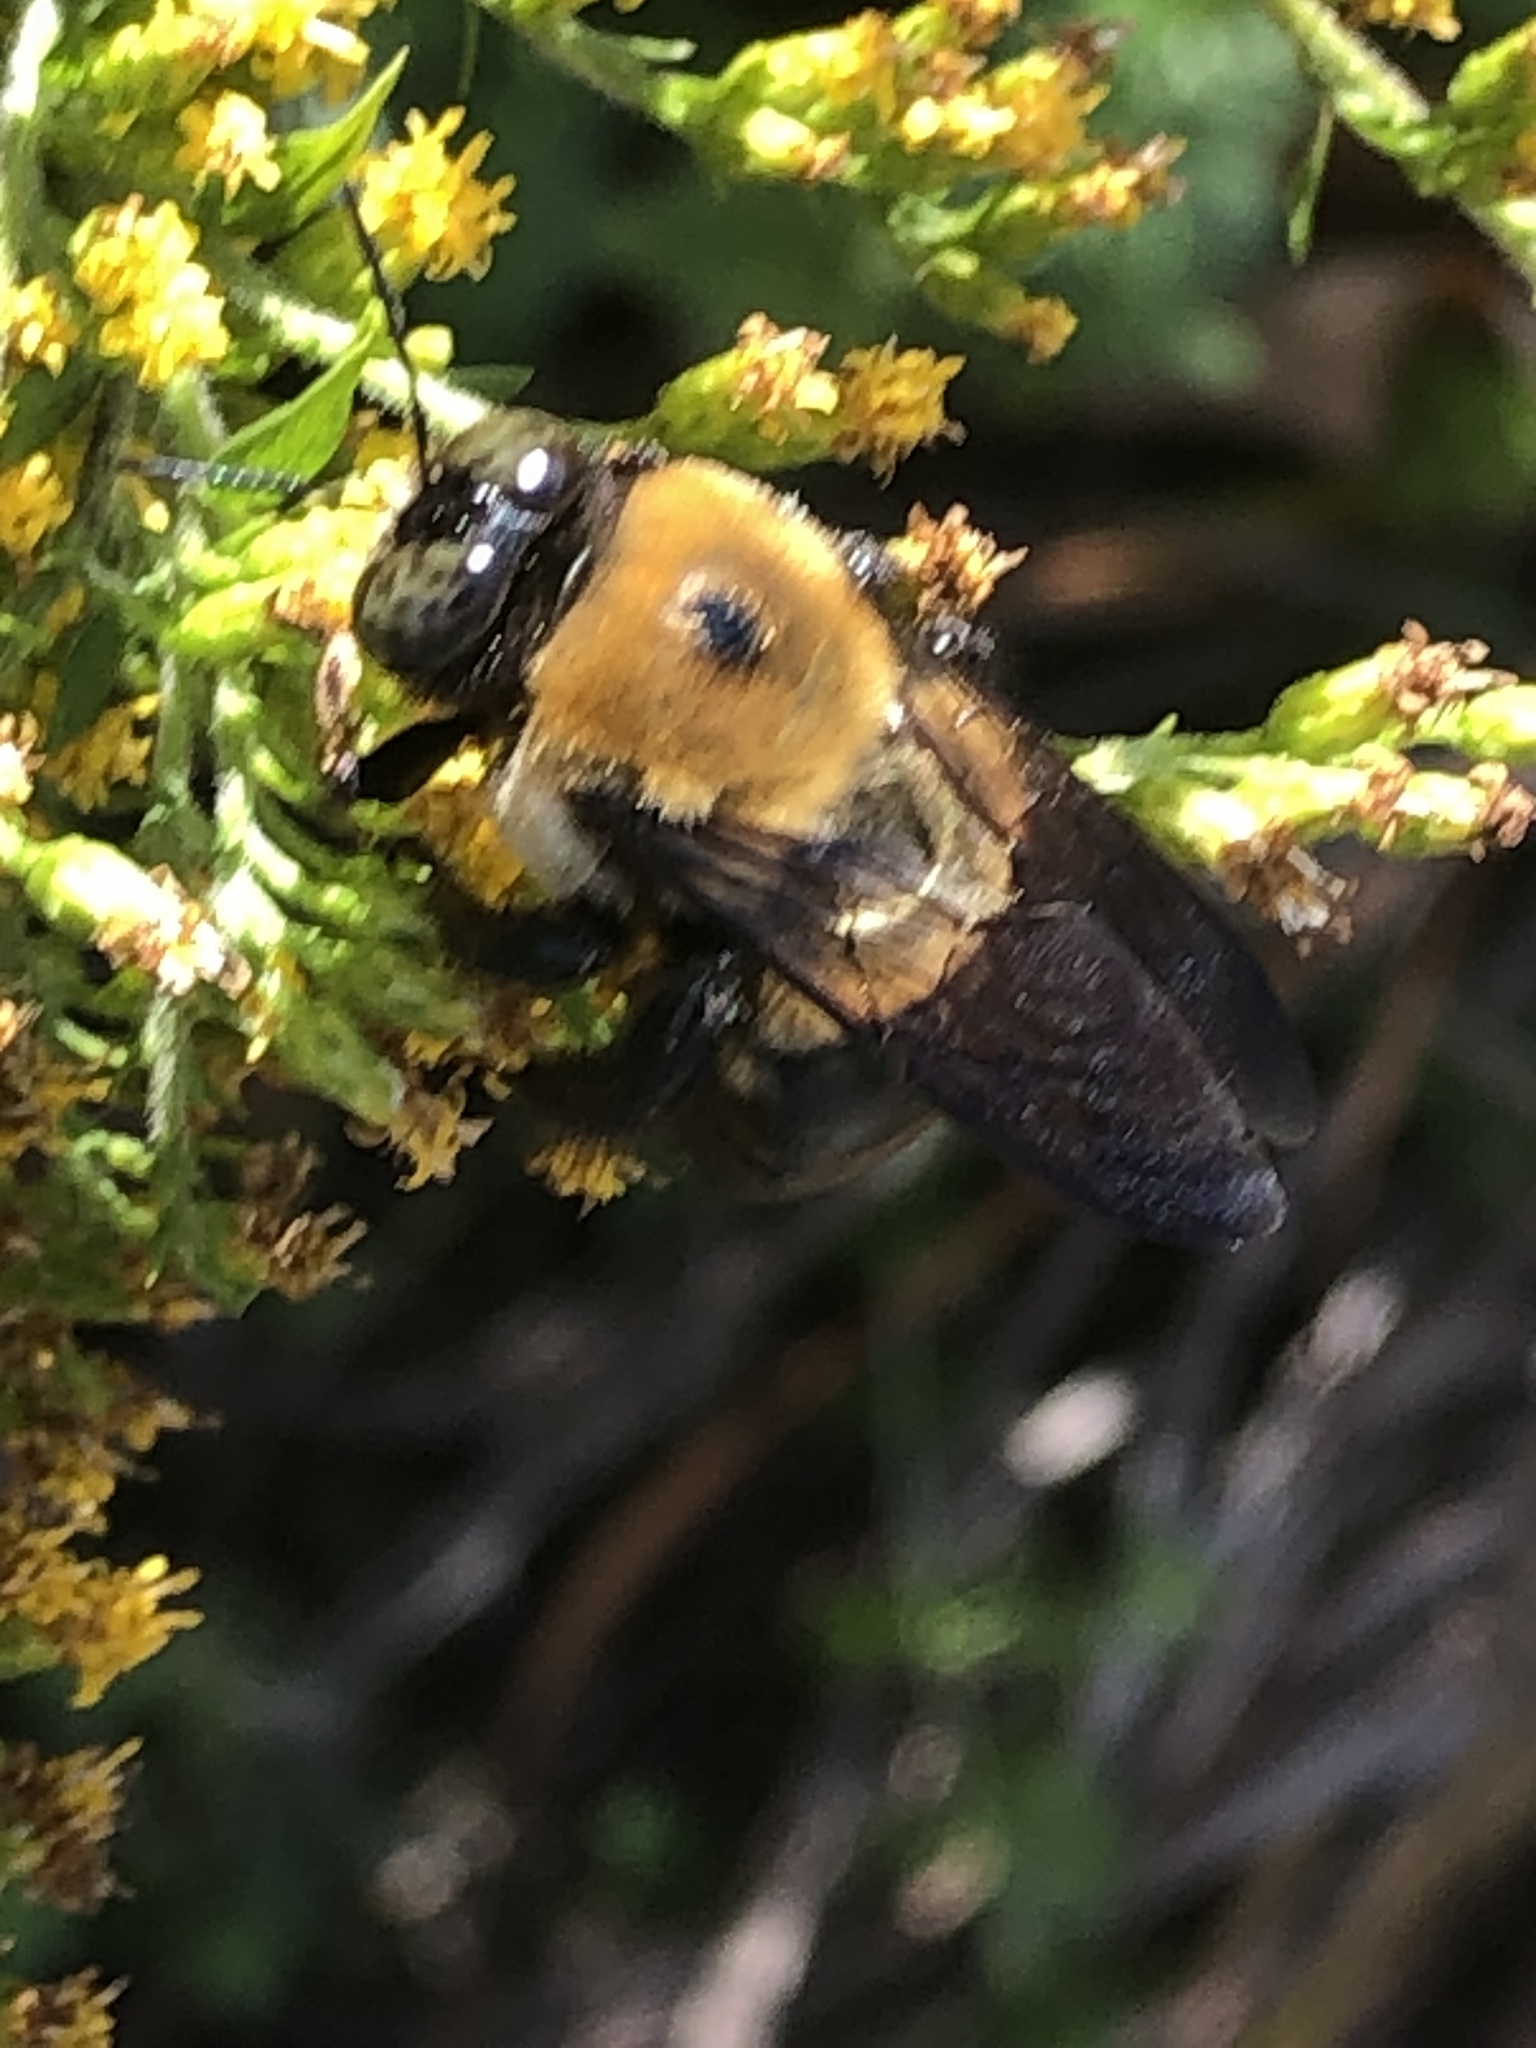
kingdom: Animalia
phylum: Arthropoda
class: Insecta
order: Hymenoptera
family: Apidae
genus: Xylocopa
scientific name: Xylocopa virginica
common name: Carpenter bee
